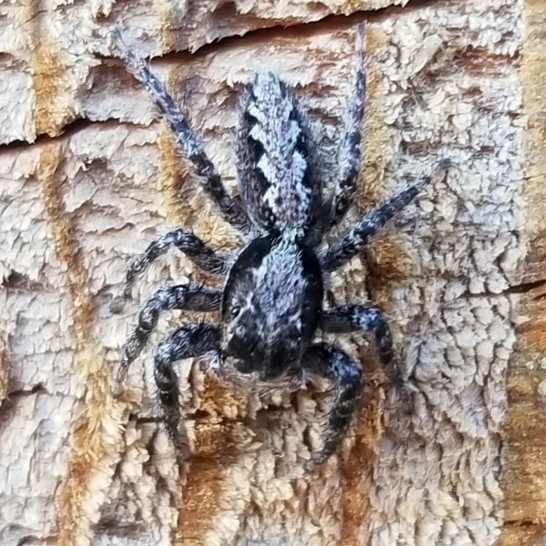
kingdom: Animalia
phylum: Arthropoda
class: Arachnida
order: Araneae
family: Salticidae
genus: Platycryptus
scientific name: Platycryptus californicus
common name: Jumping spiders
